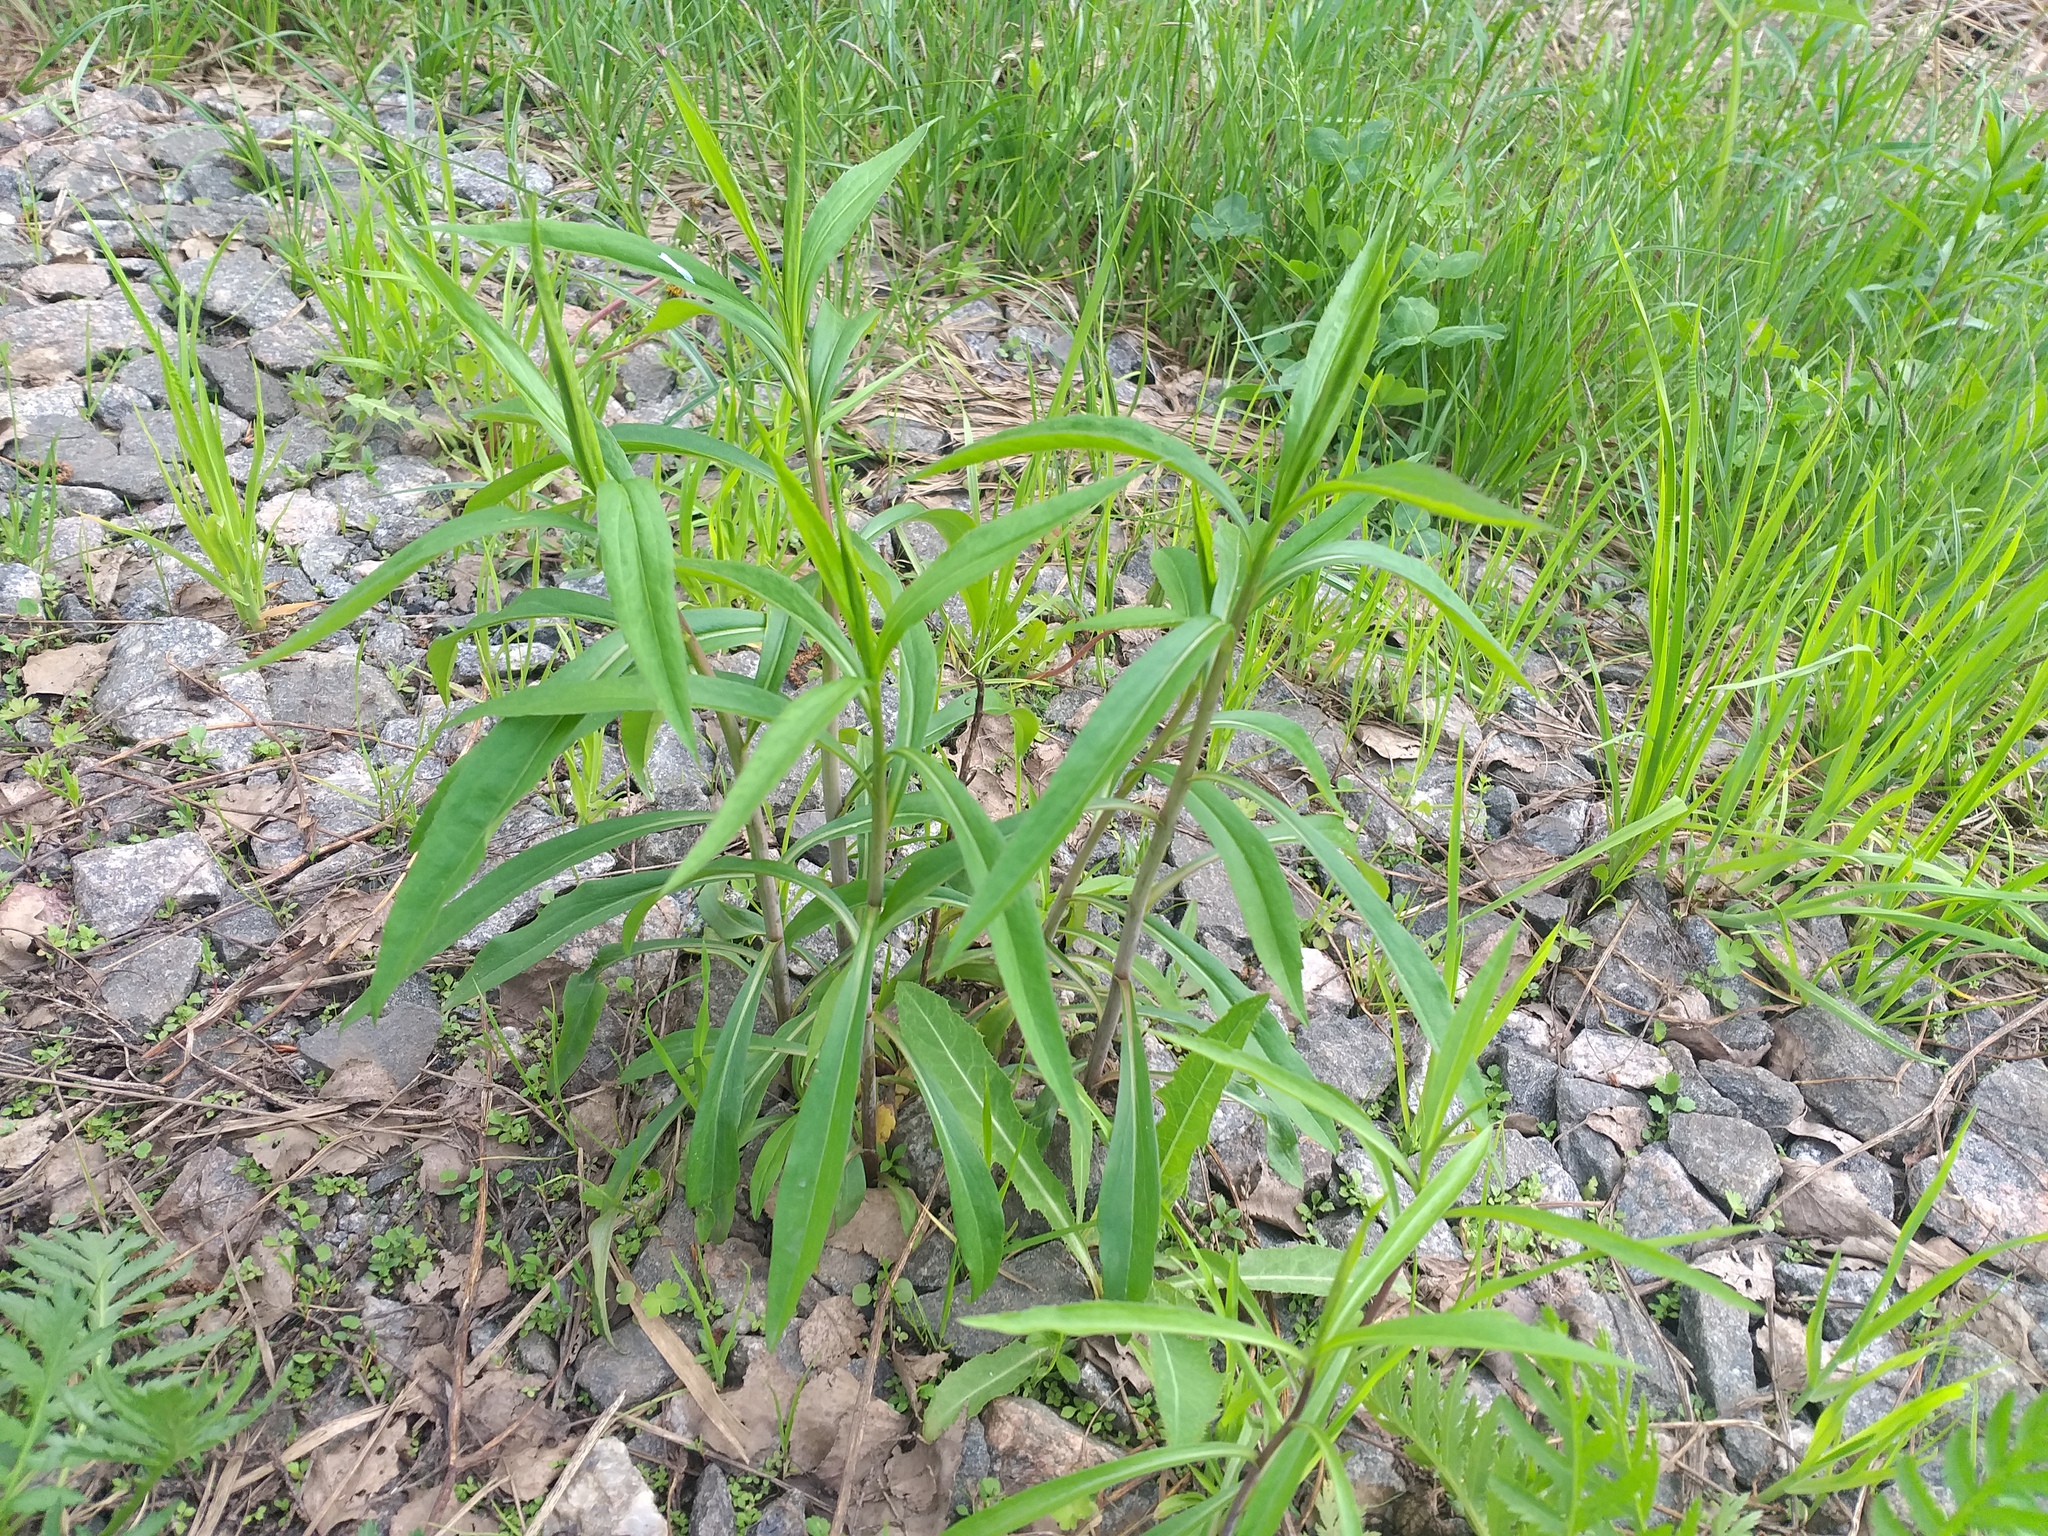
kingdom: Plantae
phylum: Tracheophyta
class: Magnoliopsida
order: Asterales
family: Asteraceae
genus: Solidago
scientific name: Solidago gigantea
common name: Giant goldenrod
